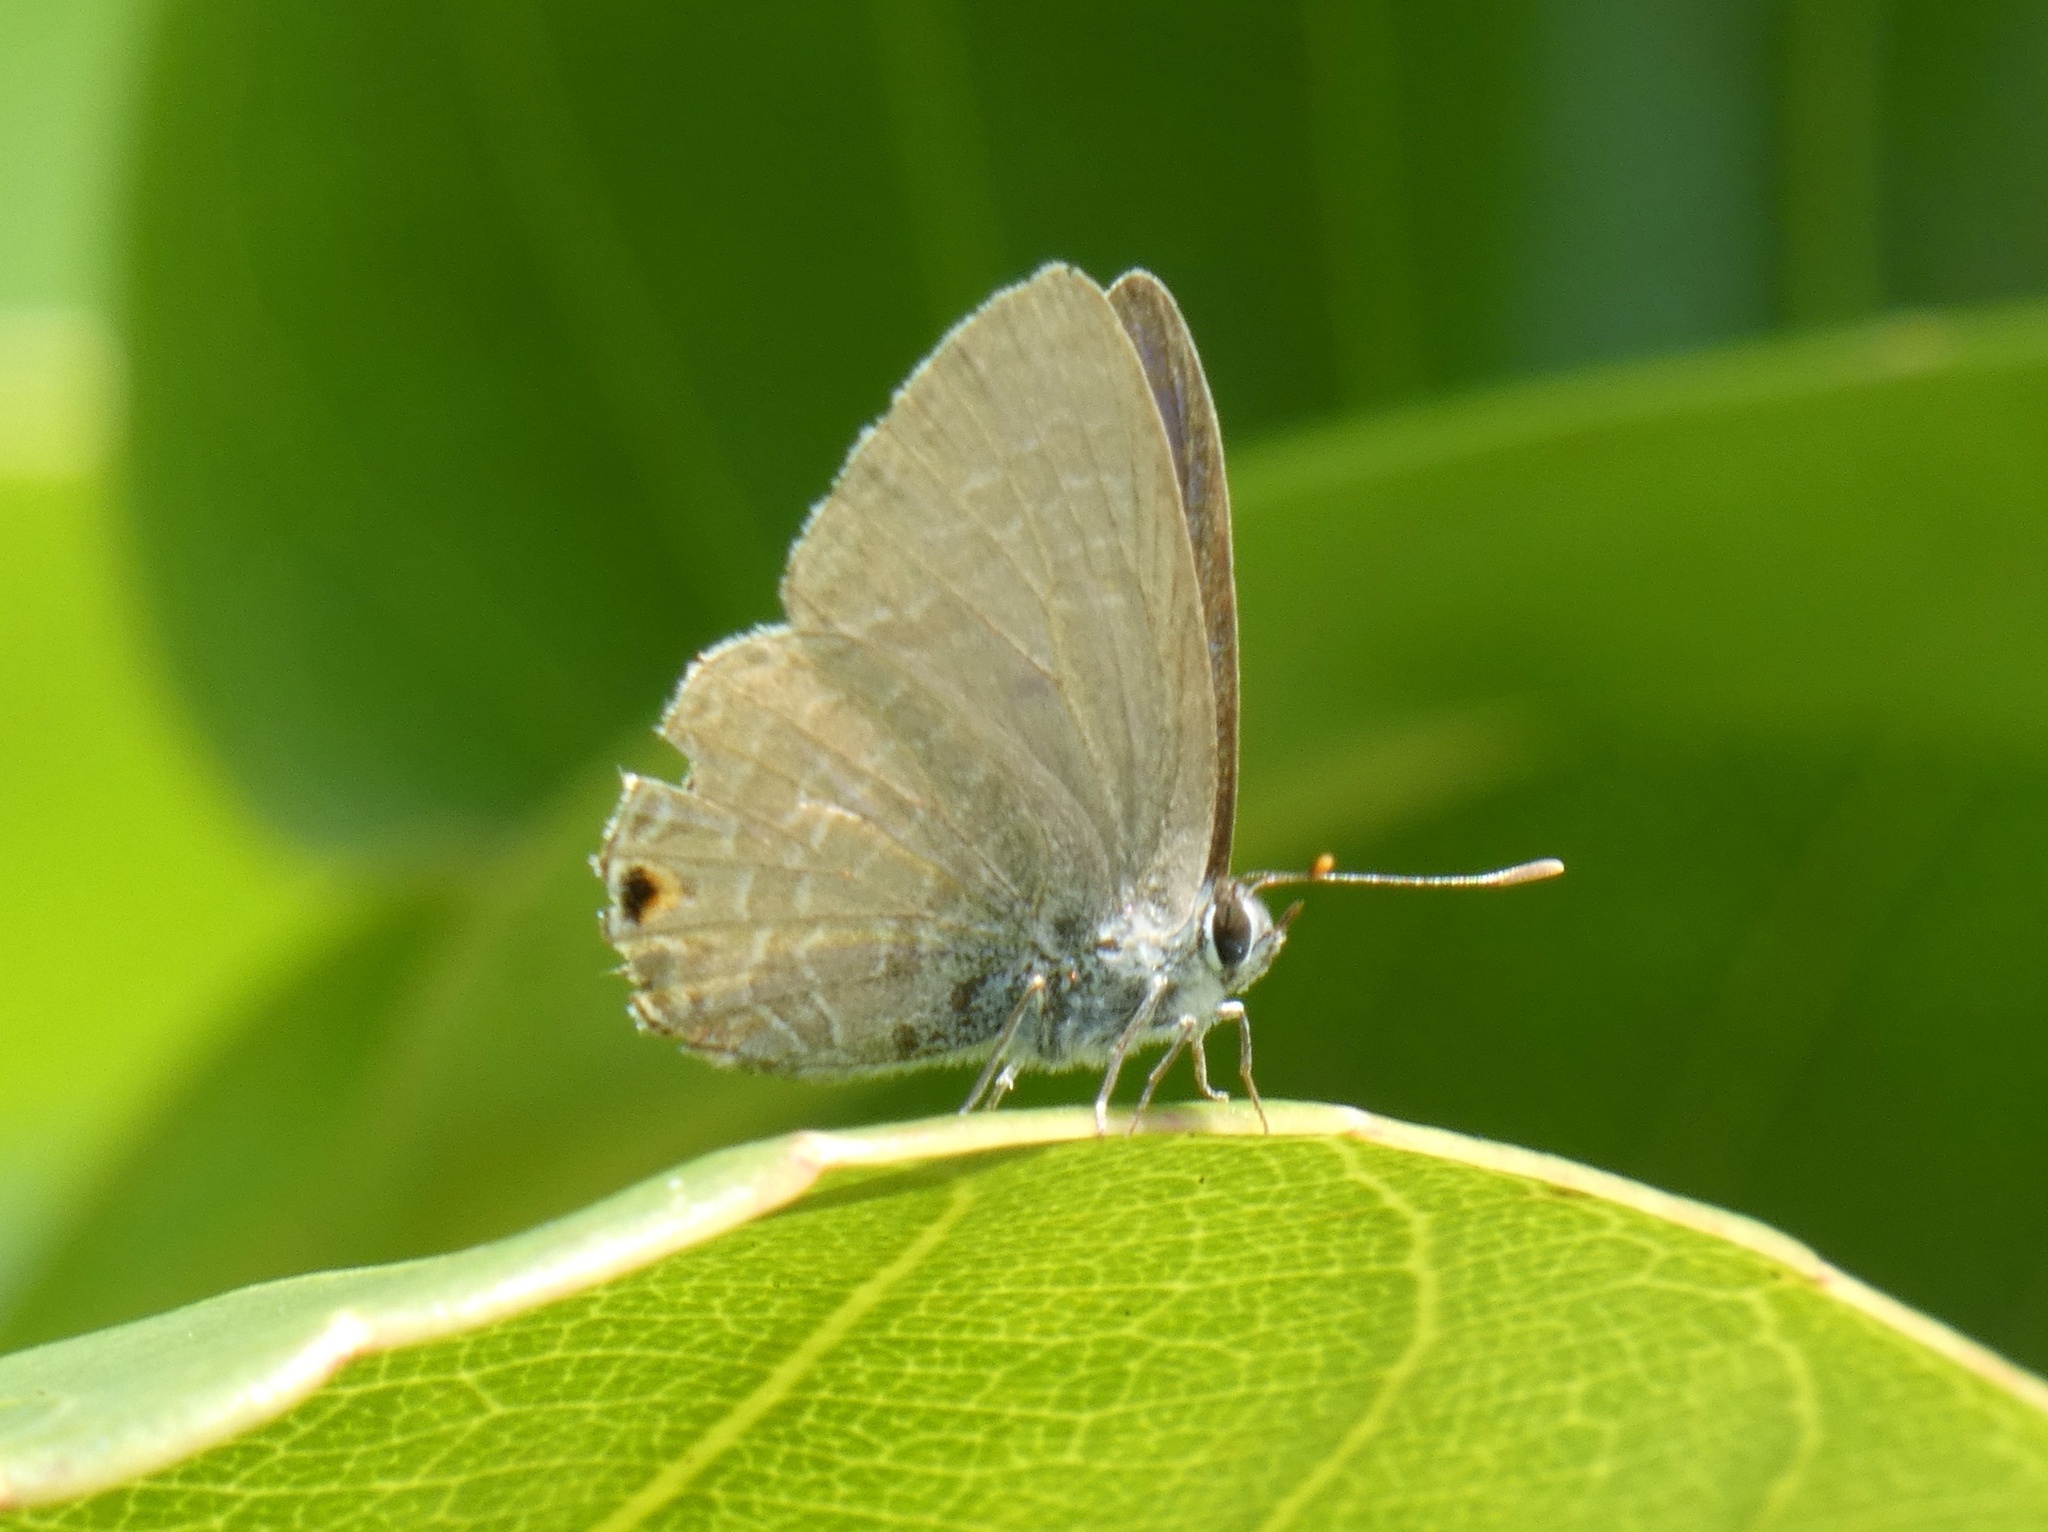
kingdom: Animalia
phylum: Arthropoda
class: Insecta
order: Lepidoptera
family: Lycaenidae
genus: Jamides
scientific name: Jamides phaseli
